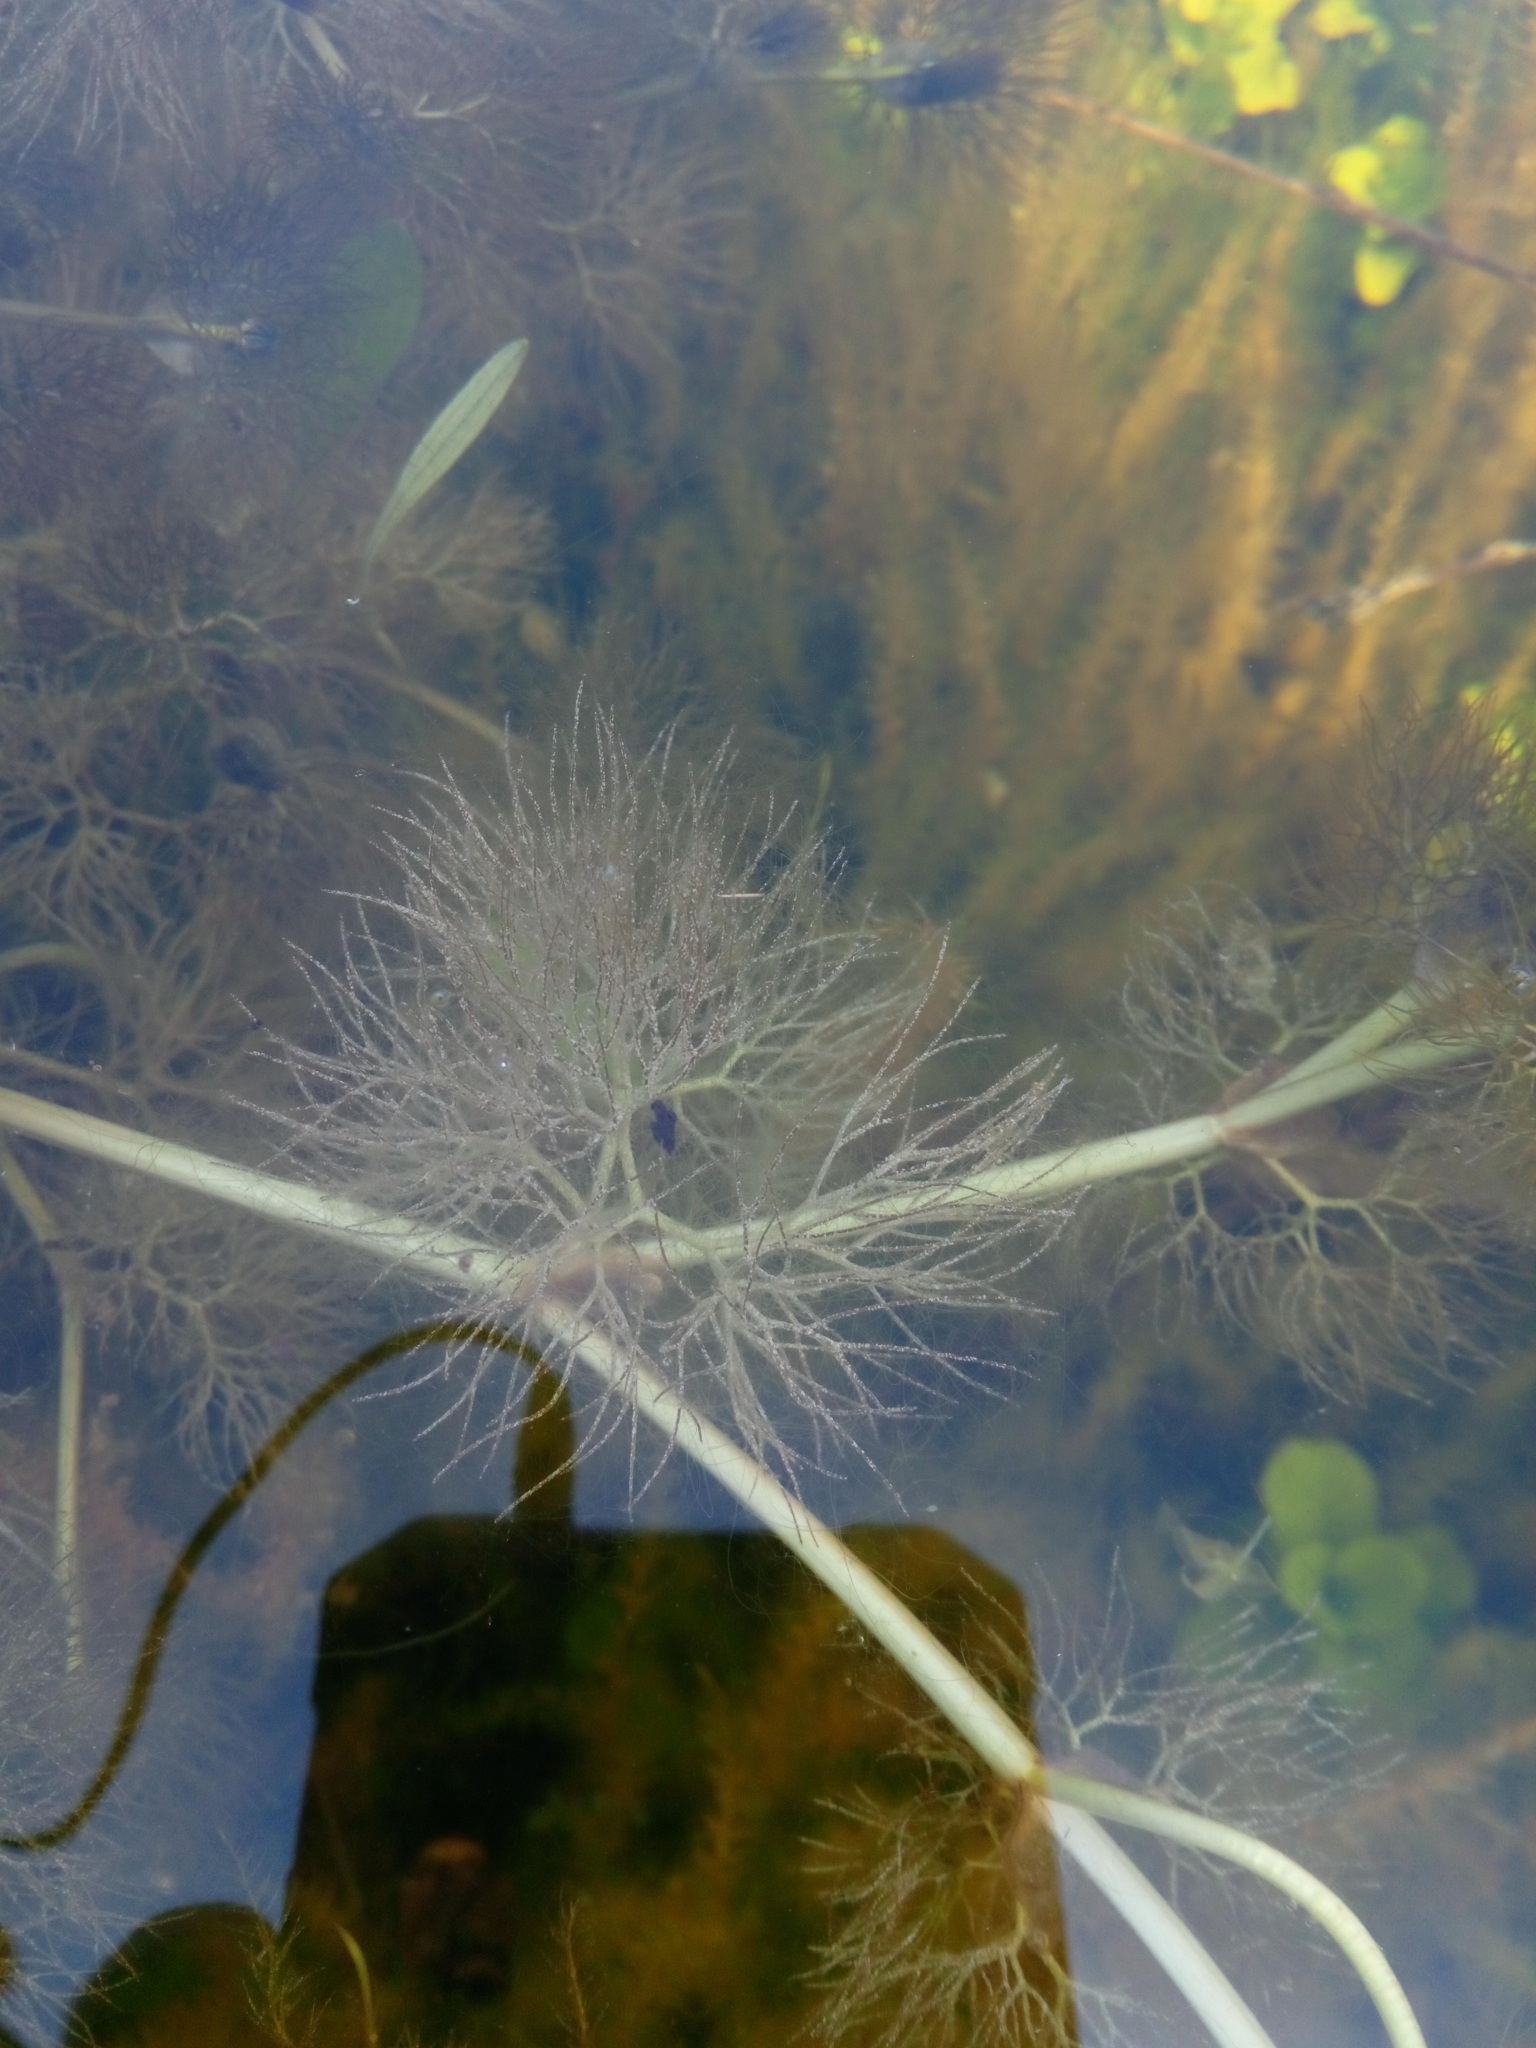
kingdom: Plantae
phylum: Tracheophyta
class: Magnoliopsida
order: Ranunculales
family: Ranunculaceae
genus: Ranunculus
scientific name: Ranunculus aquatilis
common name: Common water-crowfoot
